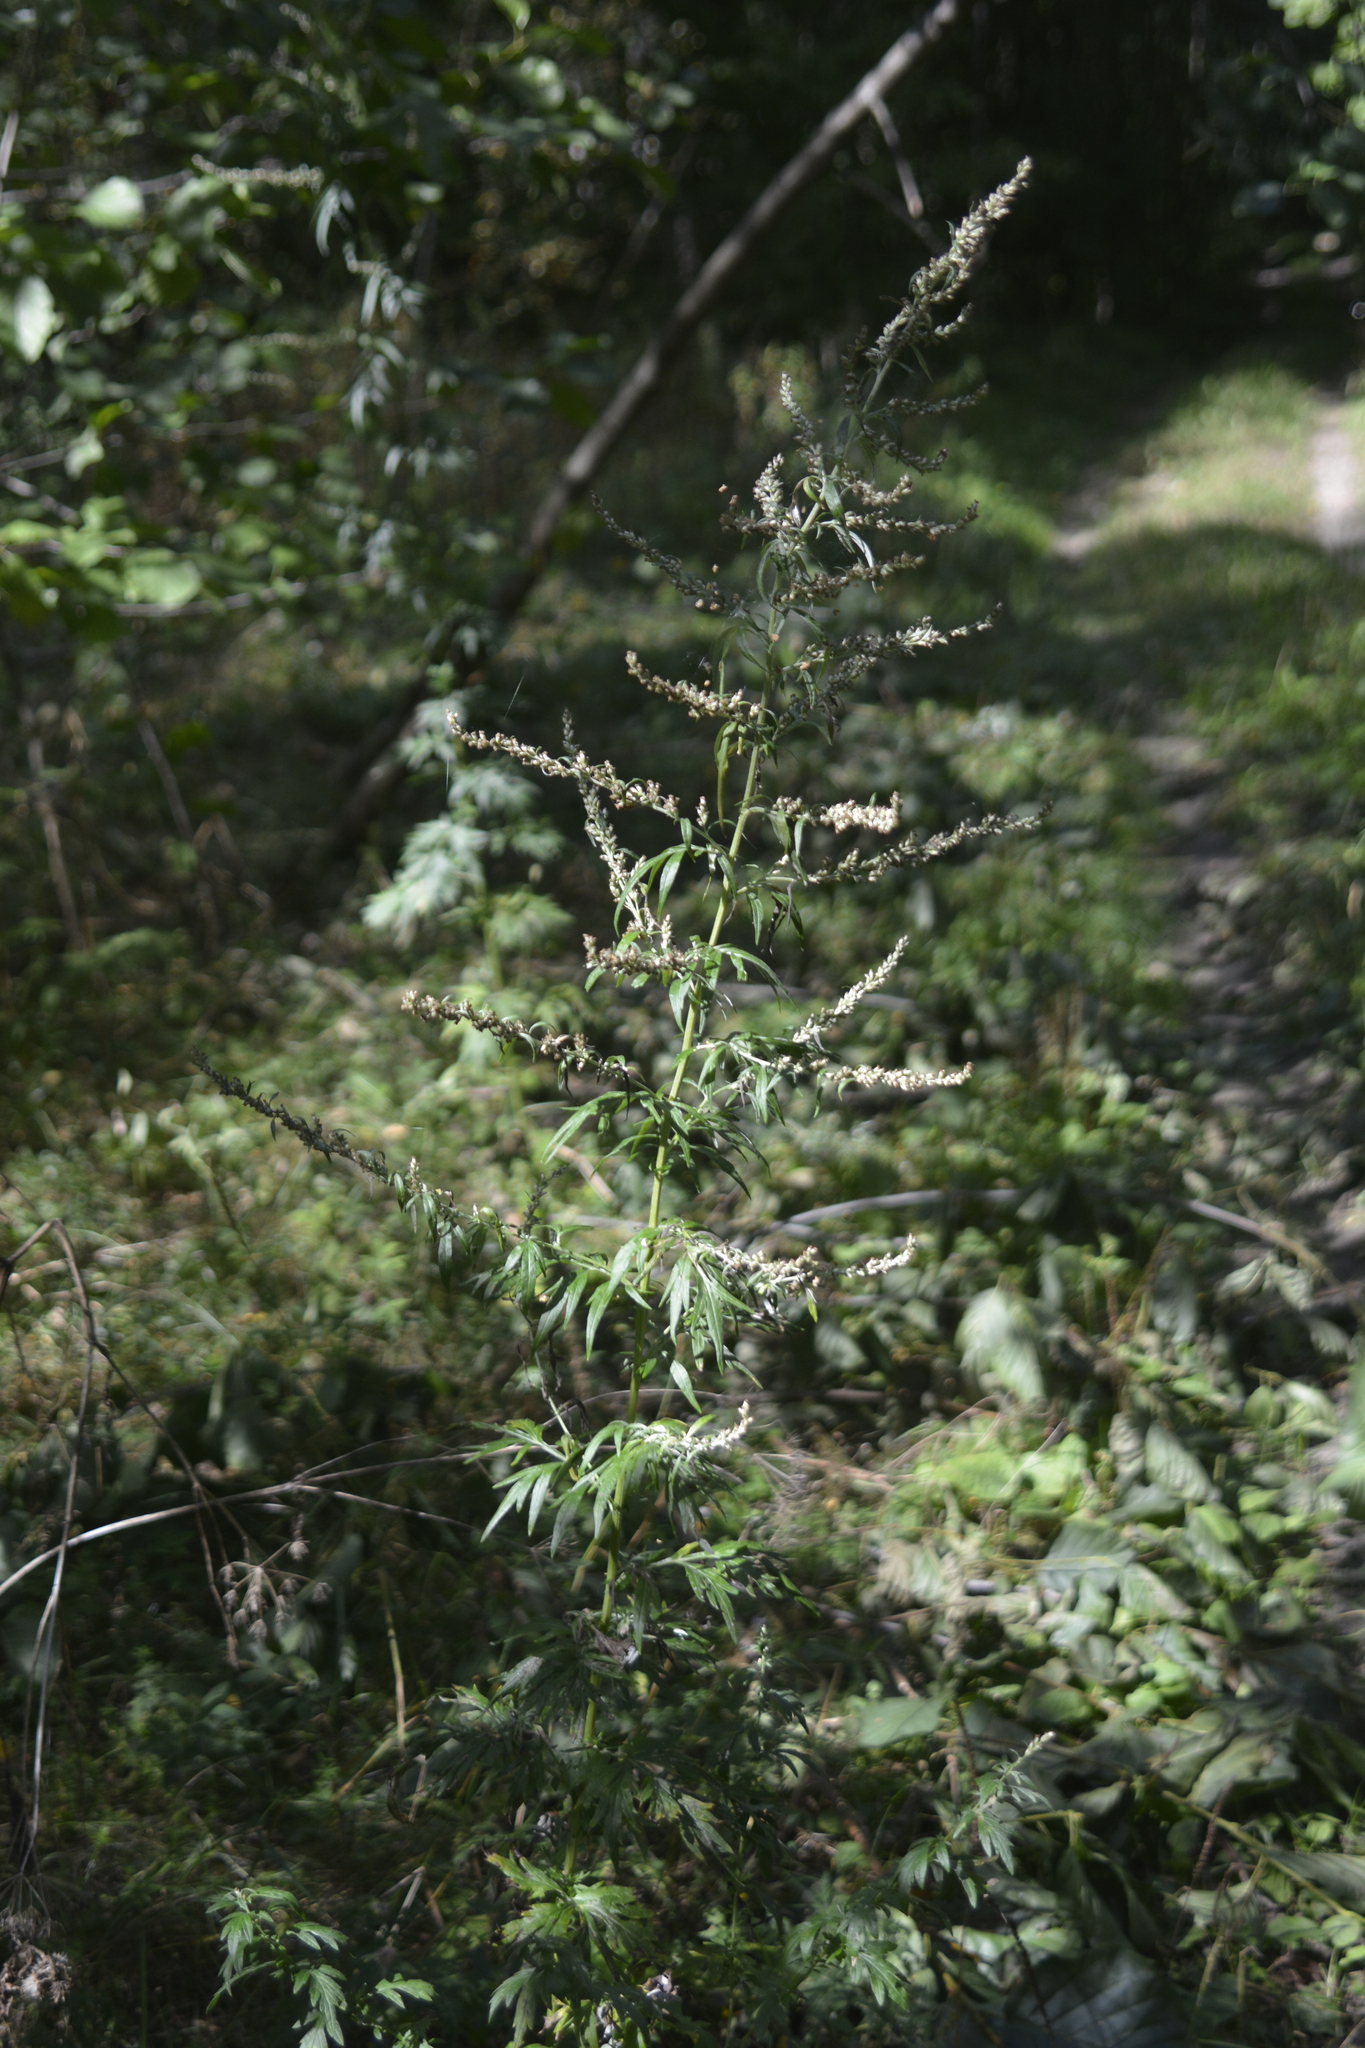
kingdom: Plantae
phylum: Tracheophyta
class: Magnoliopsida
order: Asterales
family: Asteraceae
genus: Artemisia
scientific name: Artemisia vulgaris
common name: Mugwort
